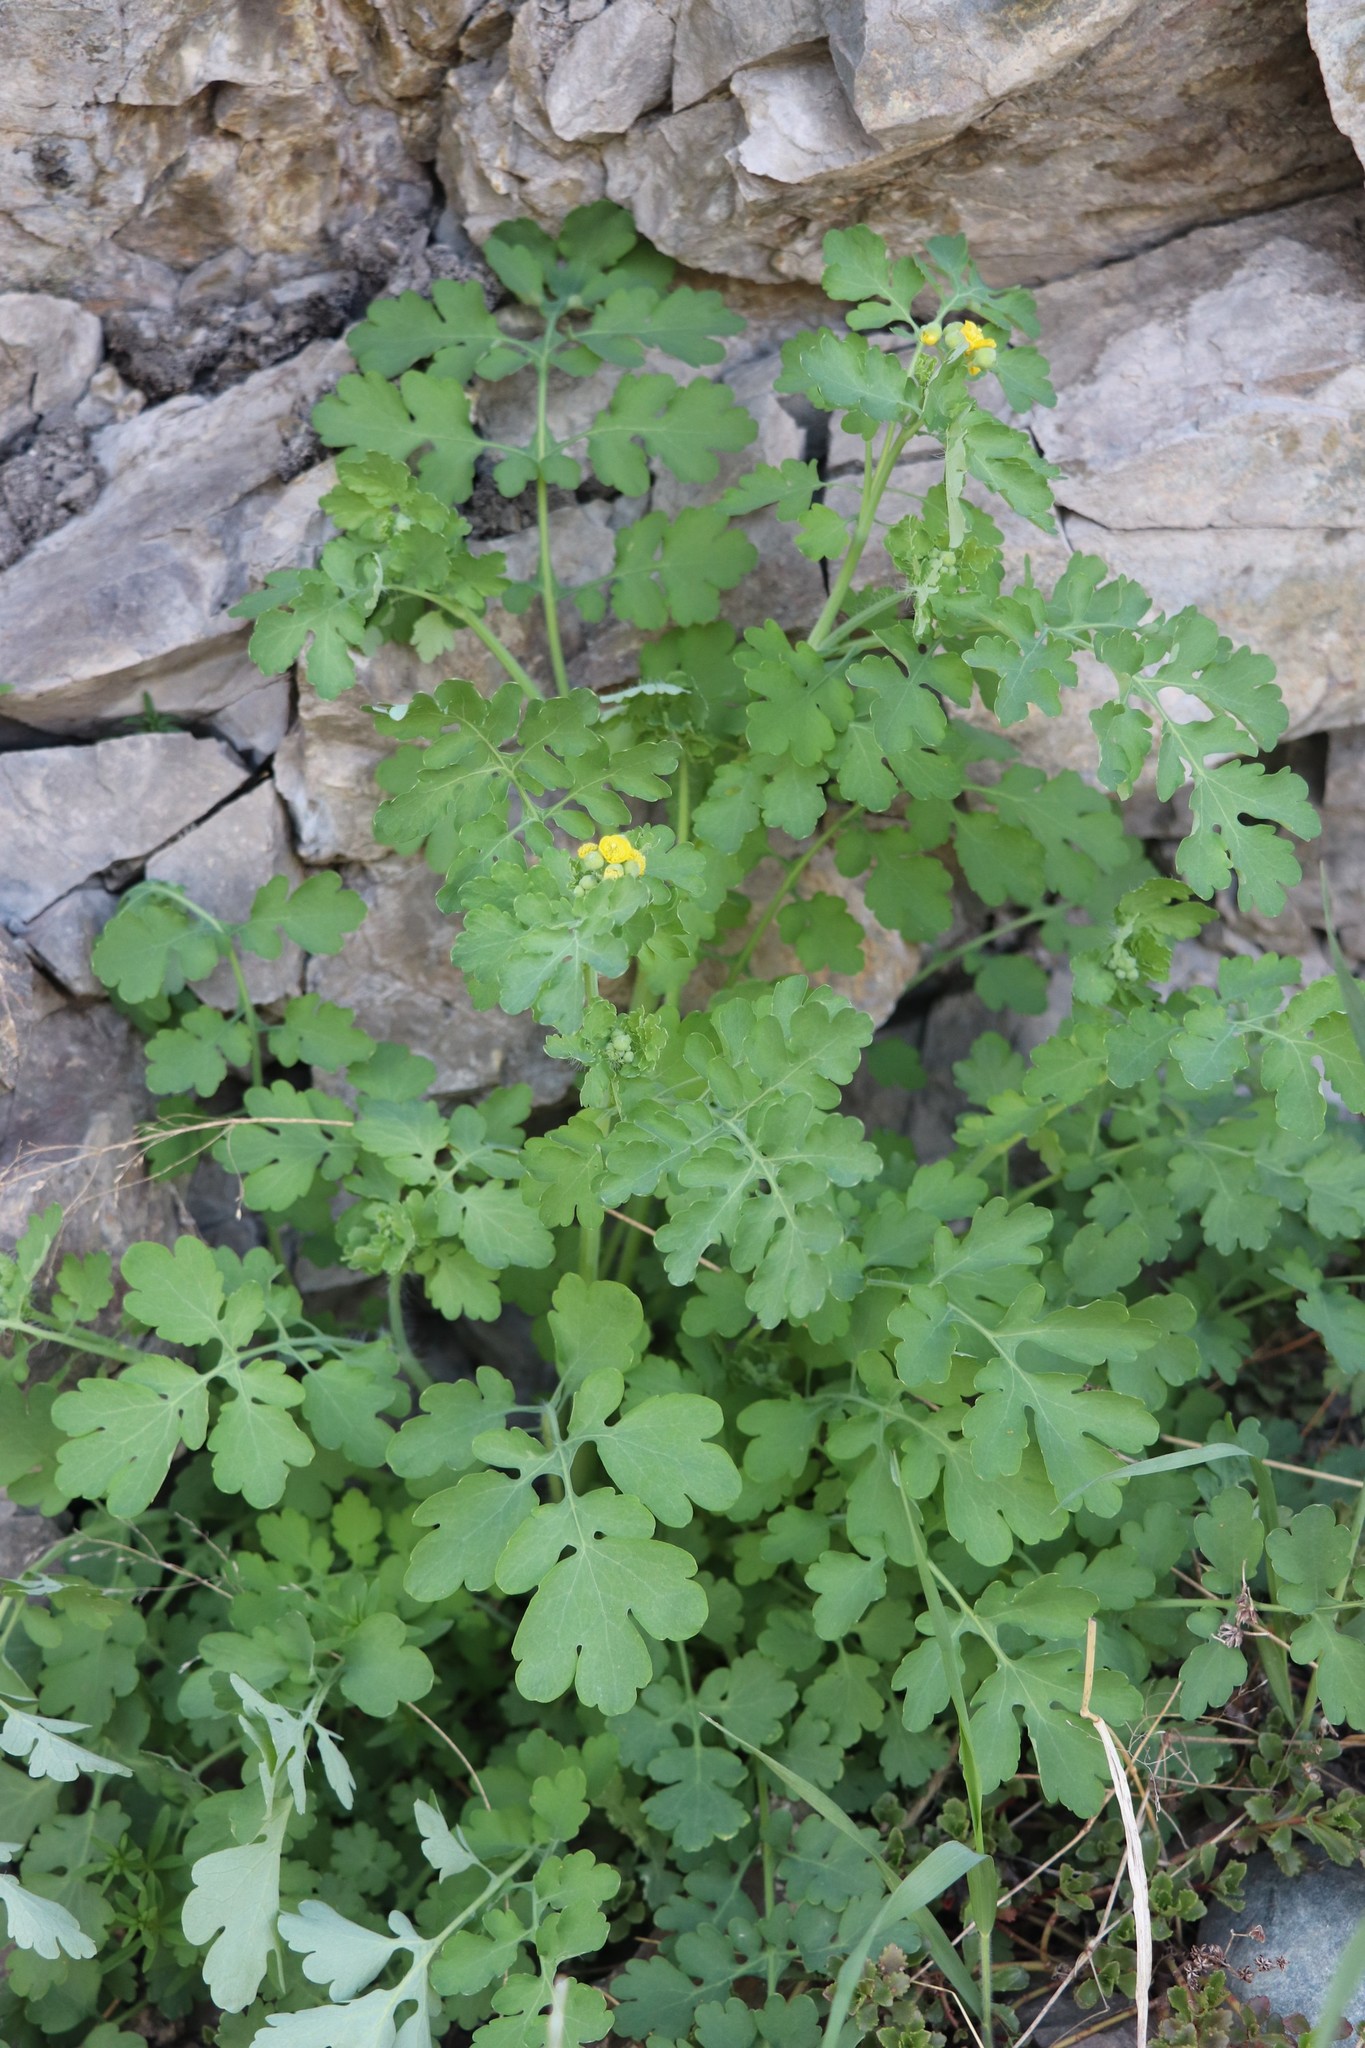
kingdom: Plantae
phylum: Tracheophyta
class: Magnoliopsida
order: Ranunculales
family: Papaveraceae
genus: Chelidonium
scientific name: Chelidonium majus
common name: Greater celandine
